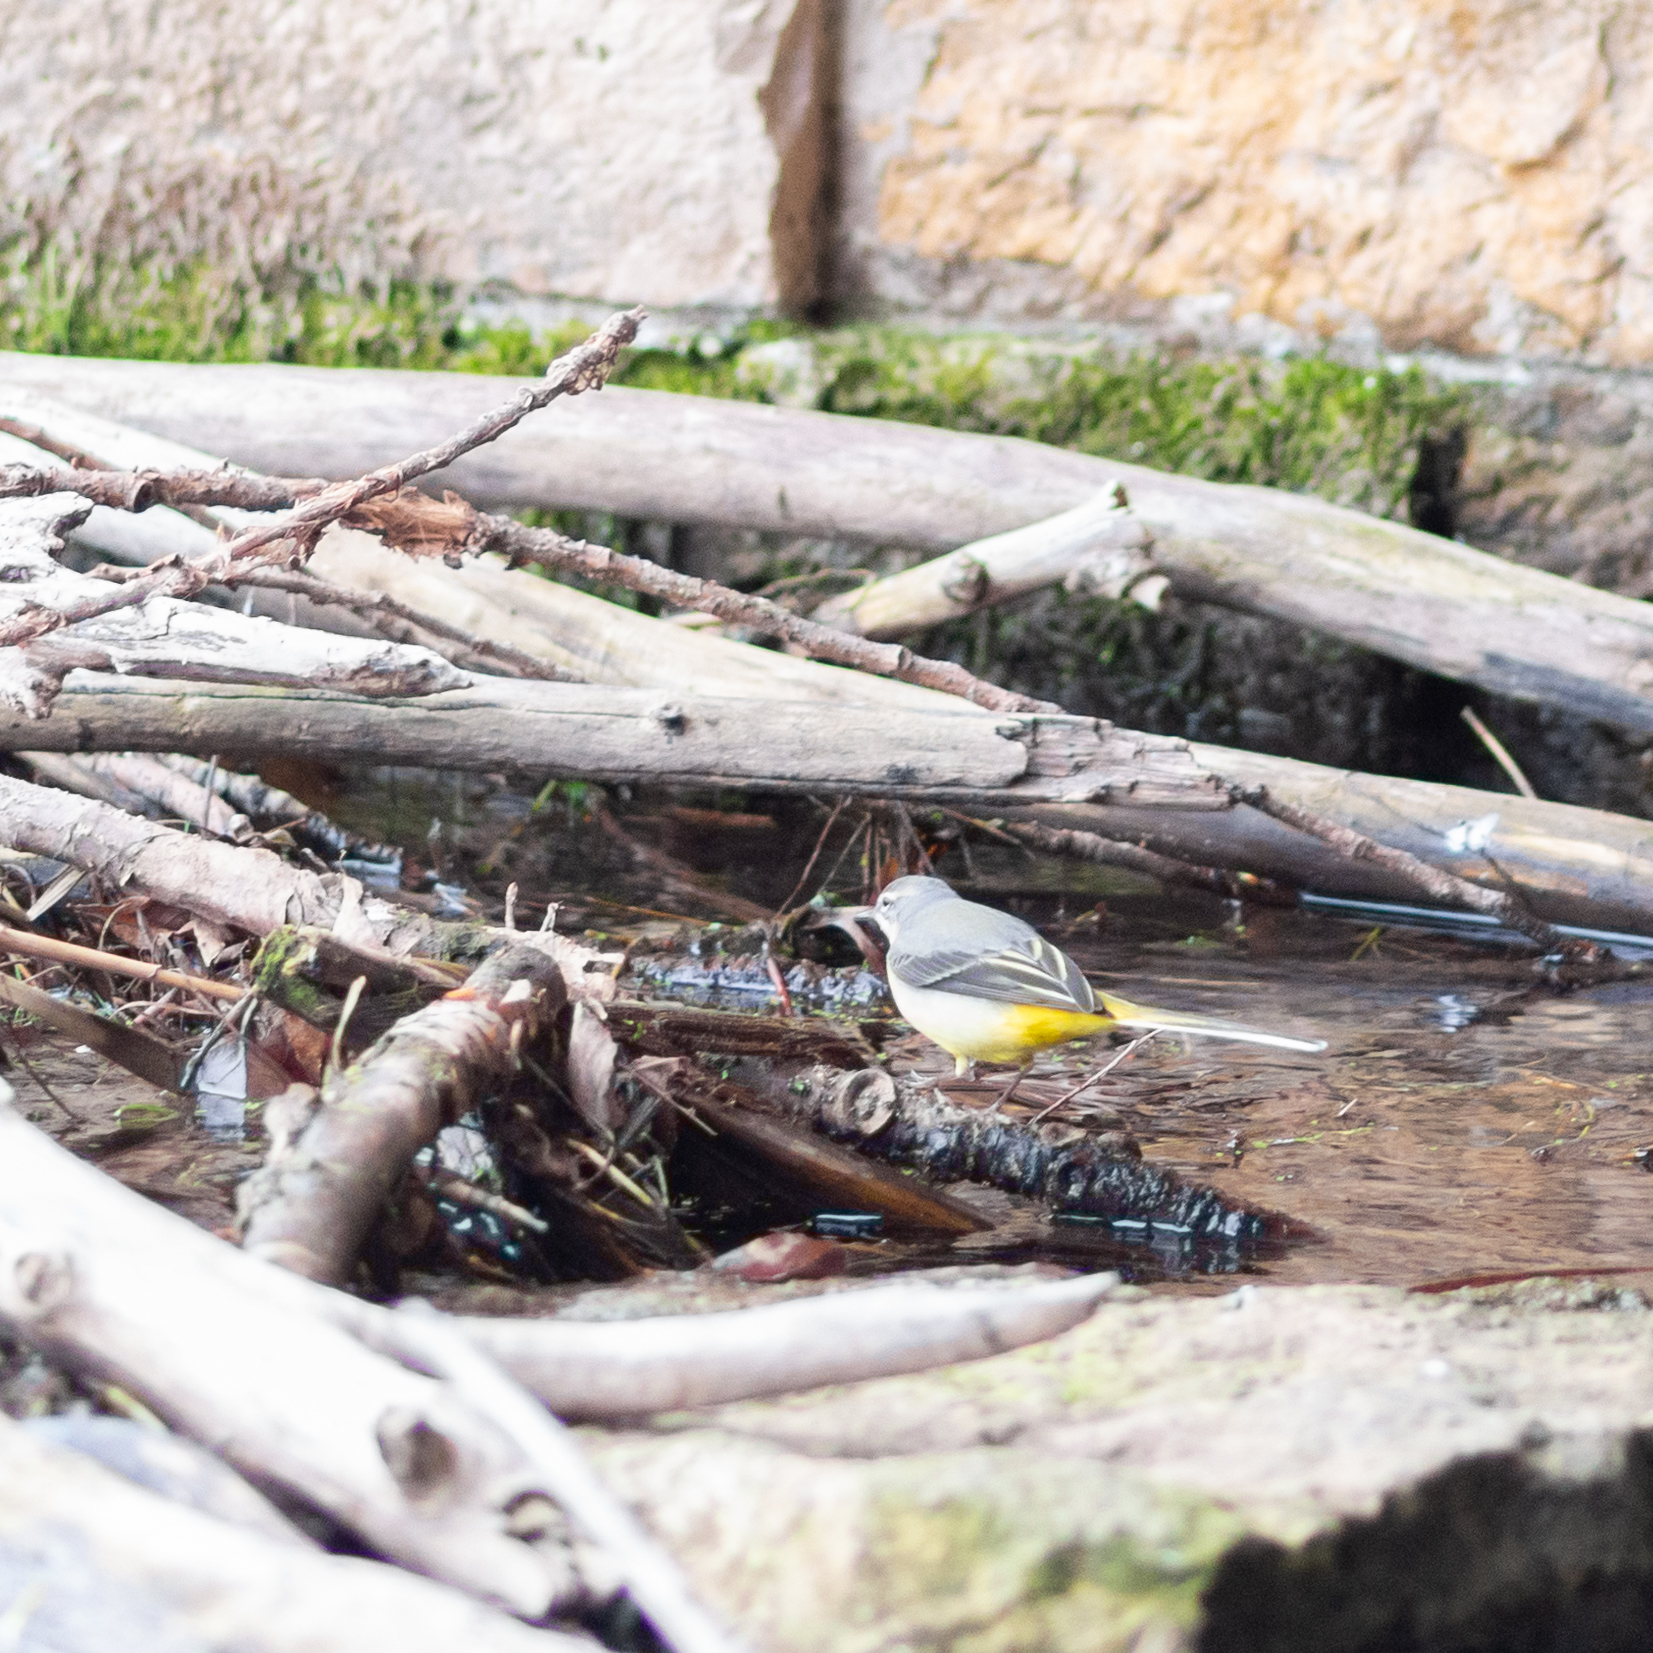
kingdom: Animalia
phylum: Chordata
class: Aves
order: Passeriformes
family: Motacillidae
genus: Motacilla
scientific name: Motacilla cinerea
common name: Grey wagtail
